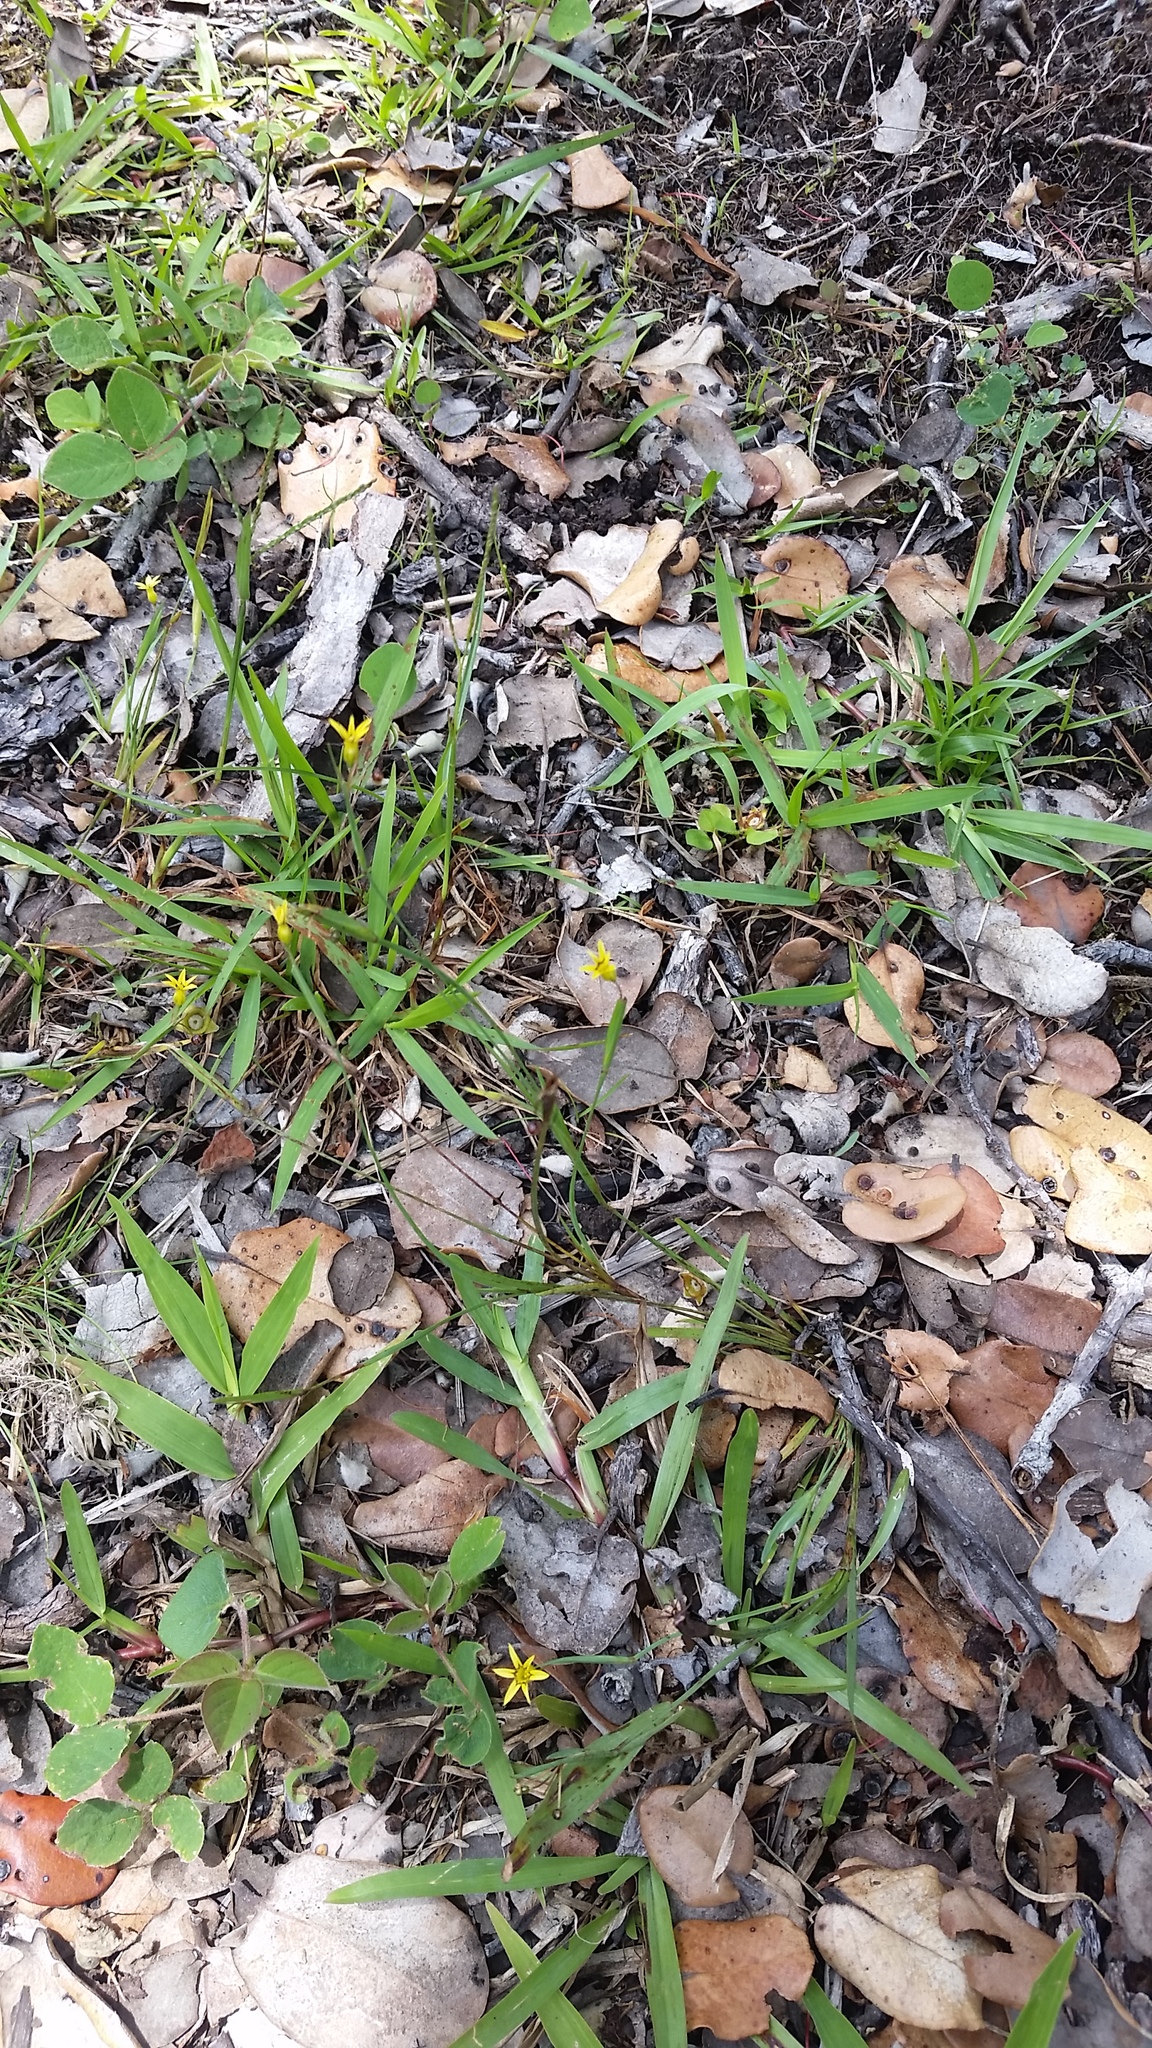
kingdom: Plantae
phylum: Tracheophyta
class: Liliopsida
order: Asparagales
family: Iridaceae
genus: Sisyrinchium
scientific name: Sisyrinchium micranthum
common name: Bermuda pigroot
